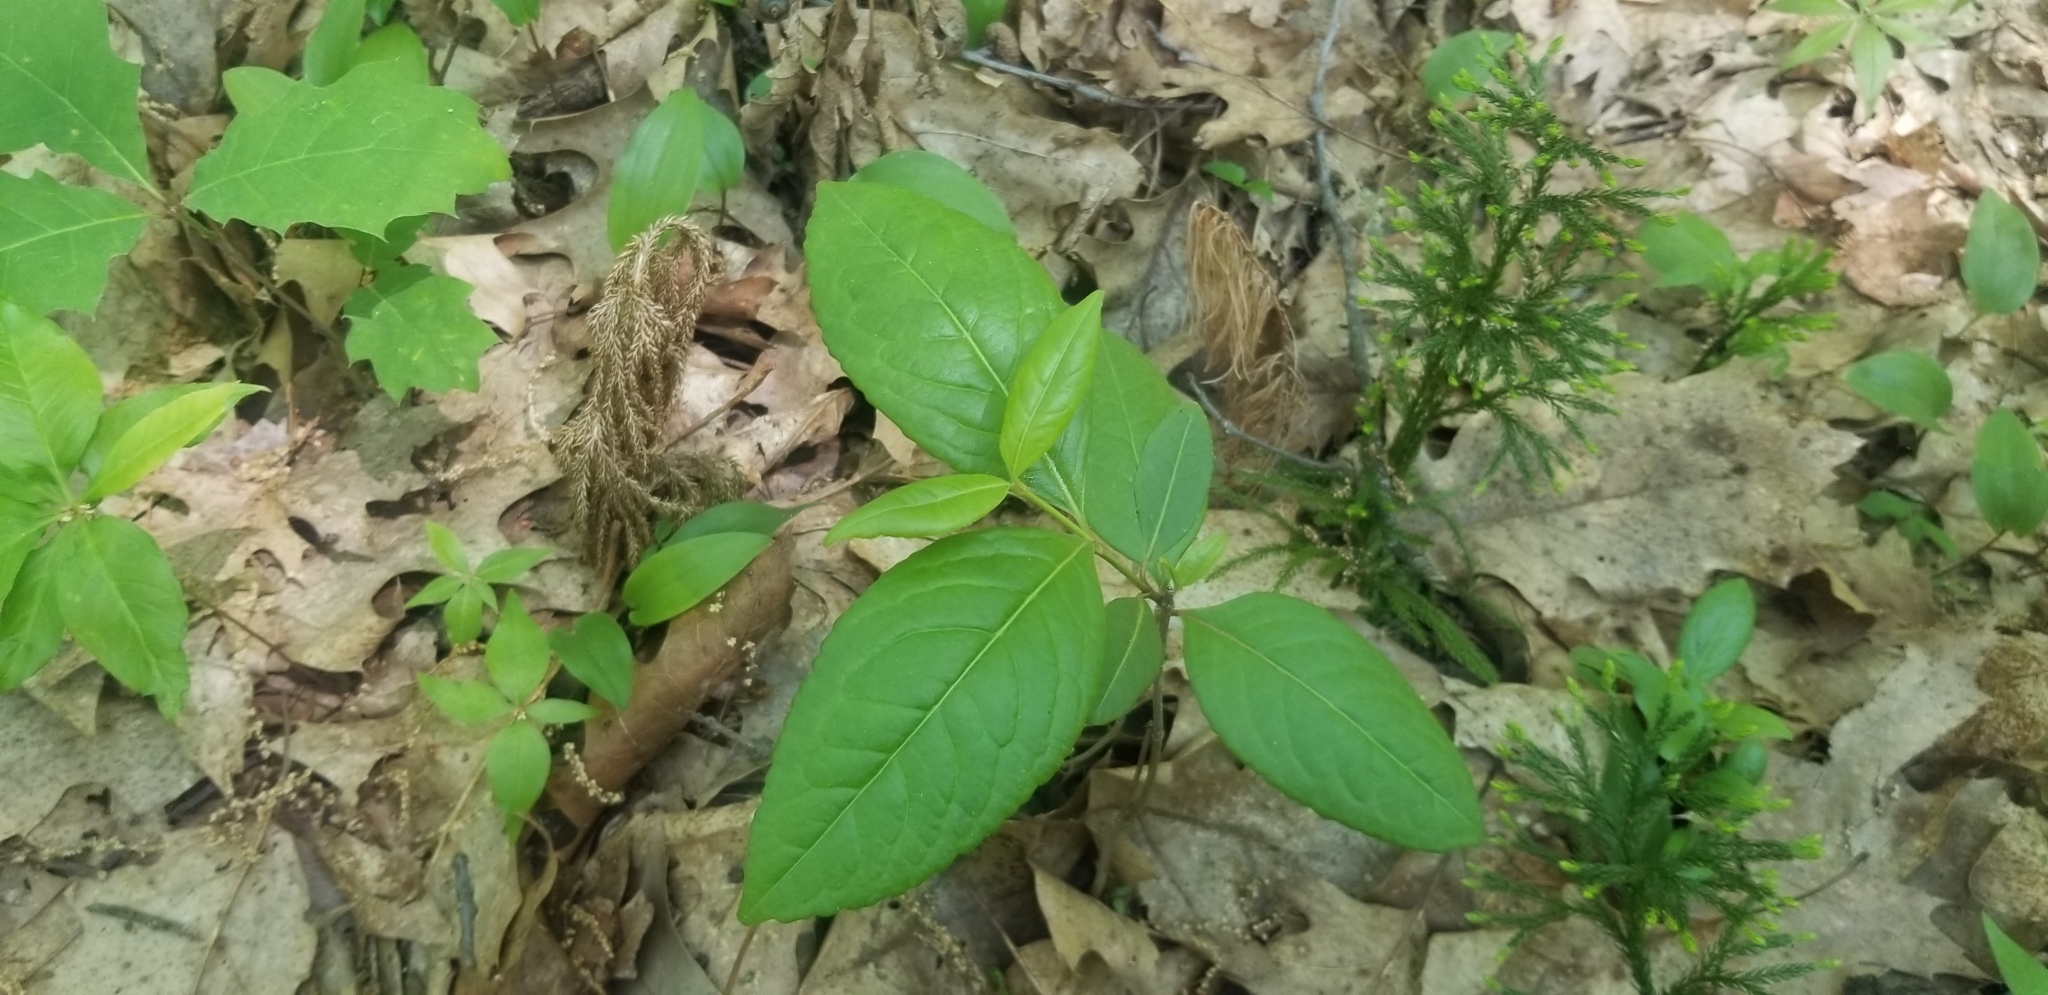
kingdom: Plantae
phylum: Tracheophyta
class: Magnoliopsida
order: Dipsacales
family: Viburnaceae
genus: Viburnum
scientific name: Viburnum cassinoides
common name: Swamp haw
